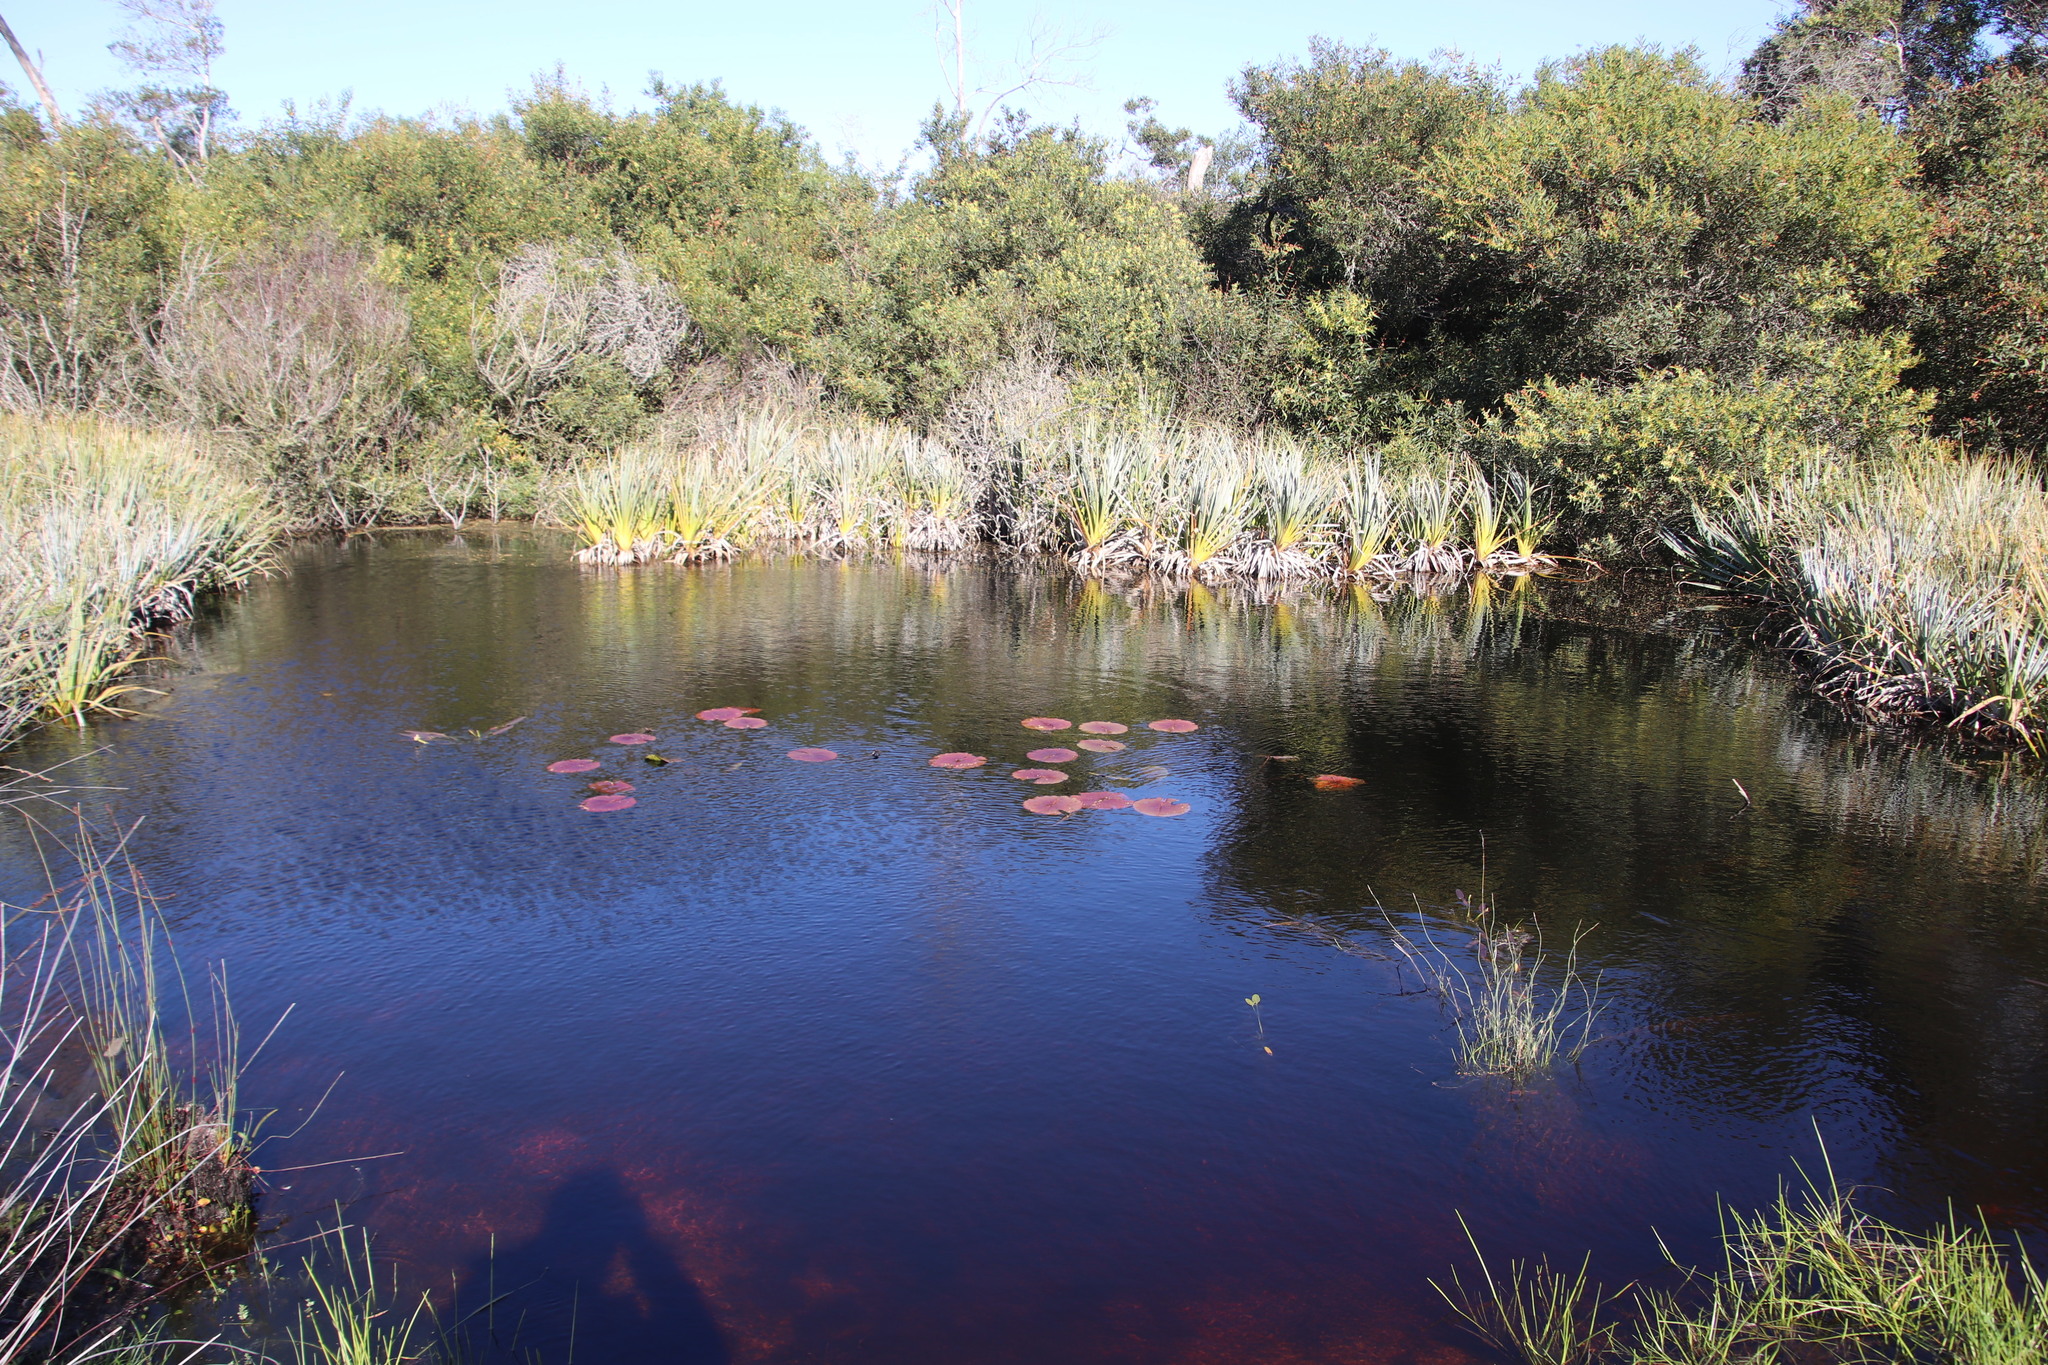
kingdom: Plantae
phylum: Tracheophyta
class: Magnoliopsida
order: Nymphaeales
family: Nymphaeaceae
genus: Nymphaea
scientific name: Nymphaea nouchali
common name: Blue lotus
